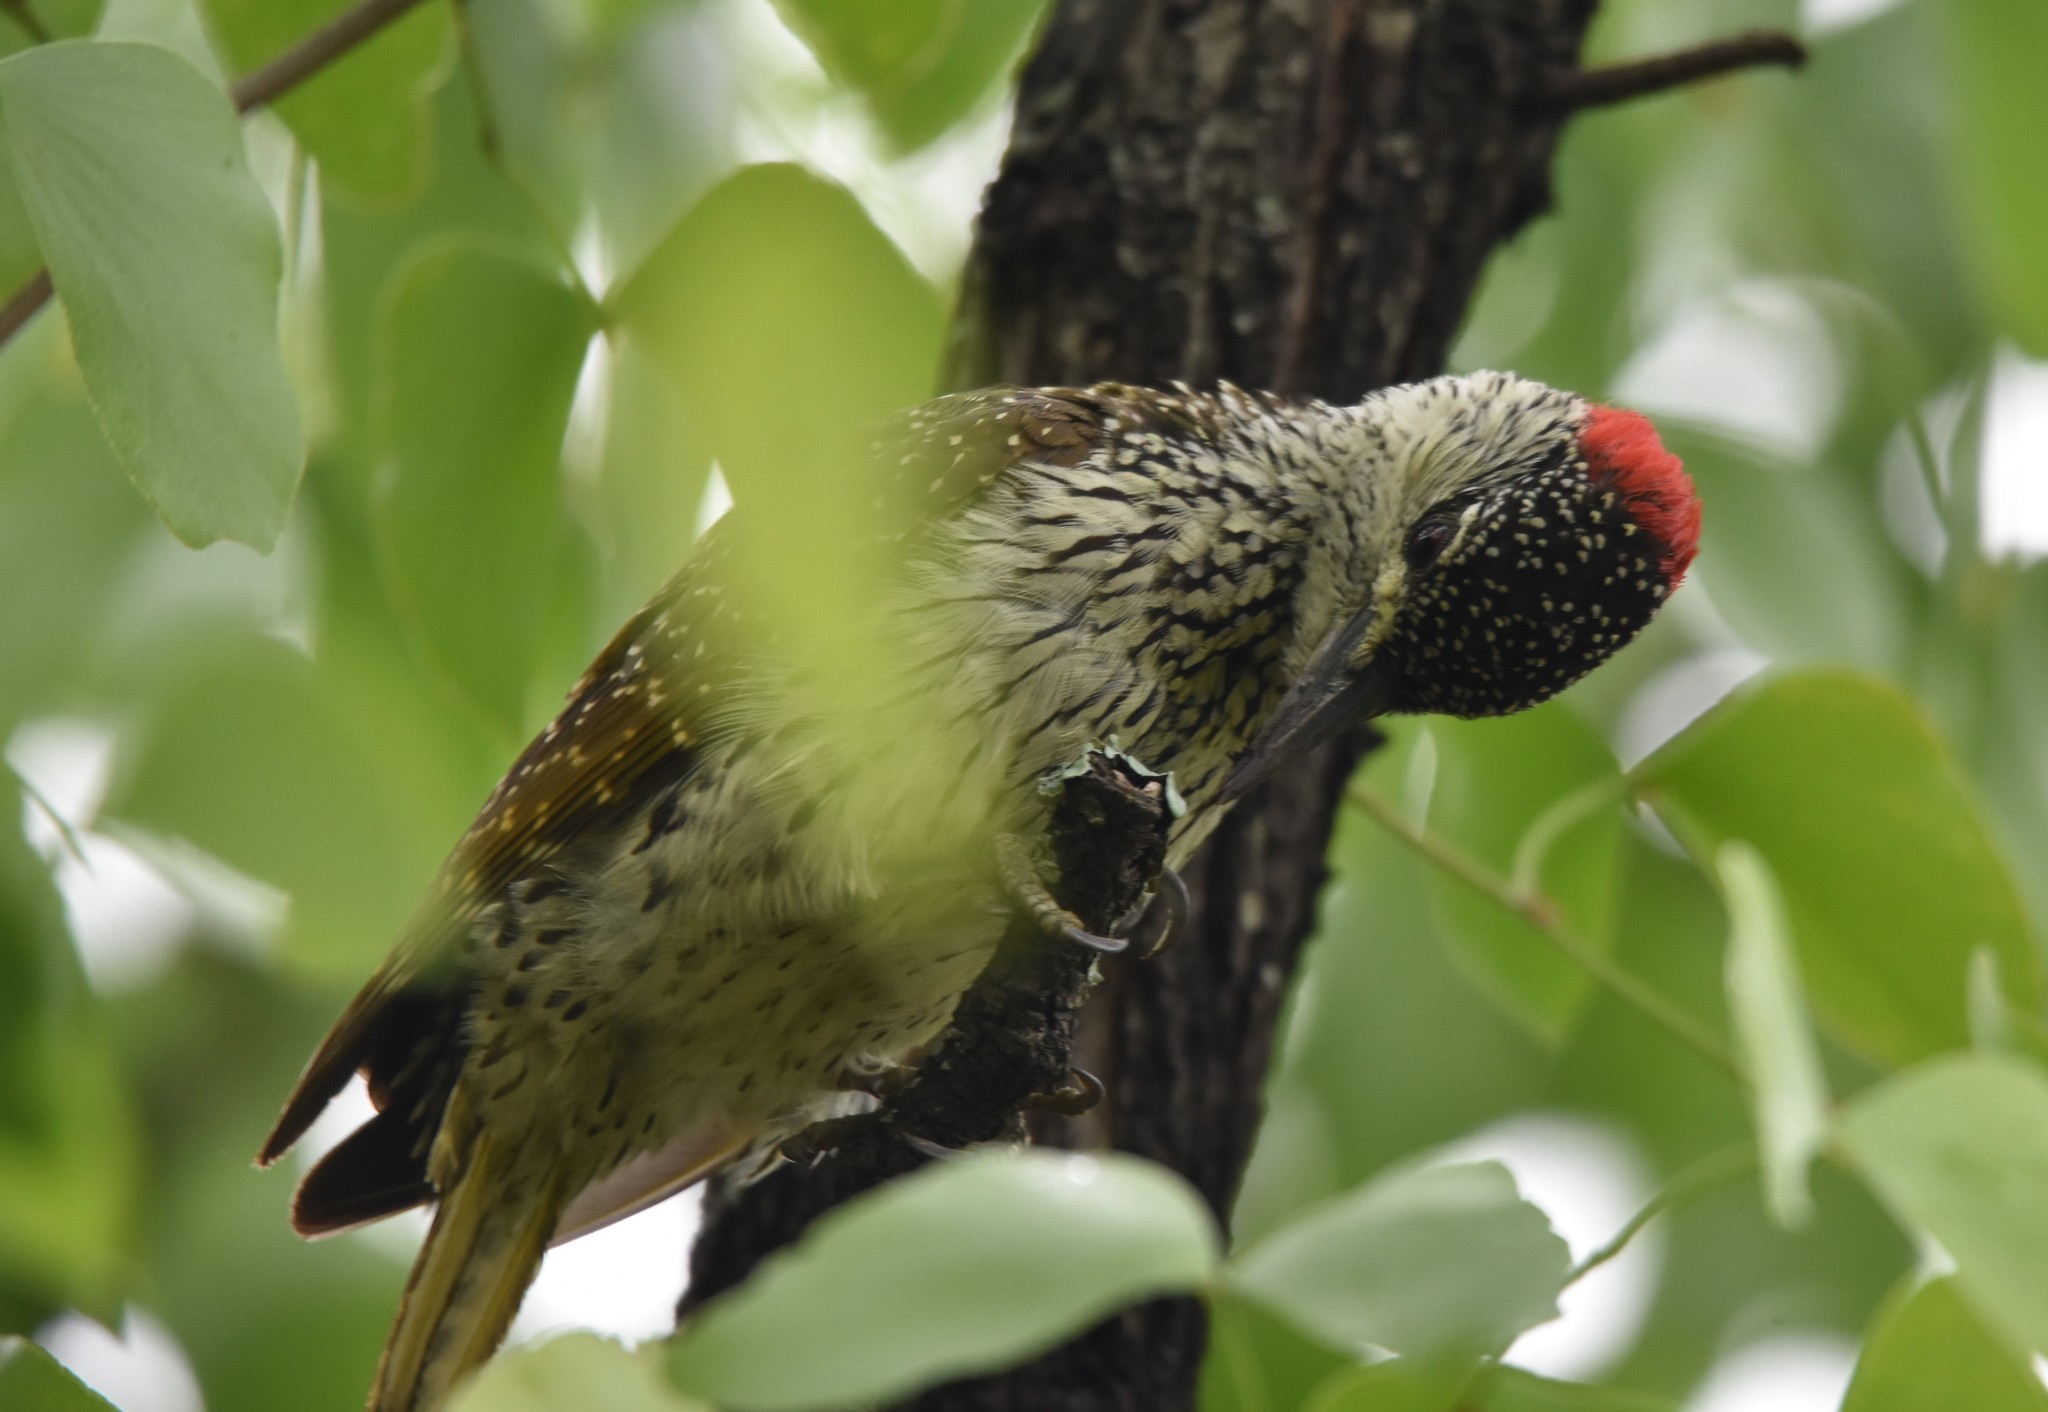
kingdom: Animalia
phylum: Chordata
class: Aves
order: Piciformes
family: Picidae
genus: Campethera
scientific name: Campethera abingoni
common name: Golden-tailed woodpecker
